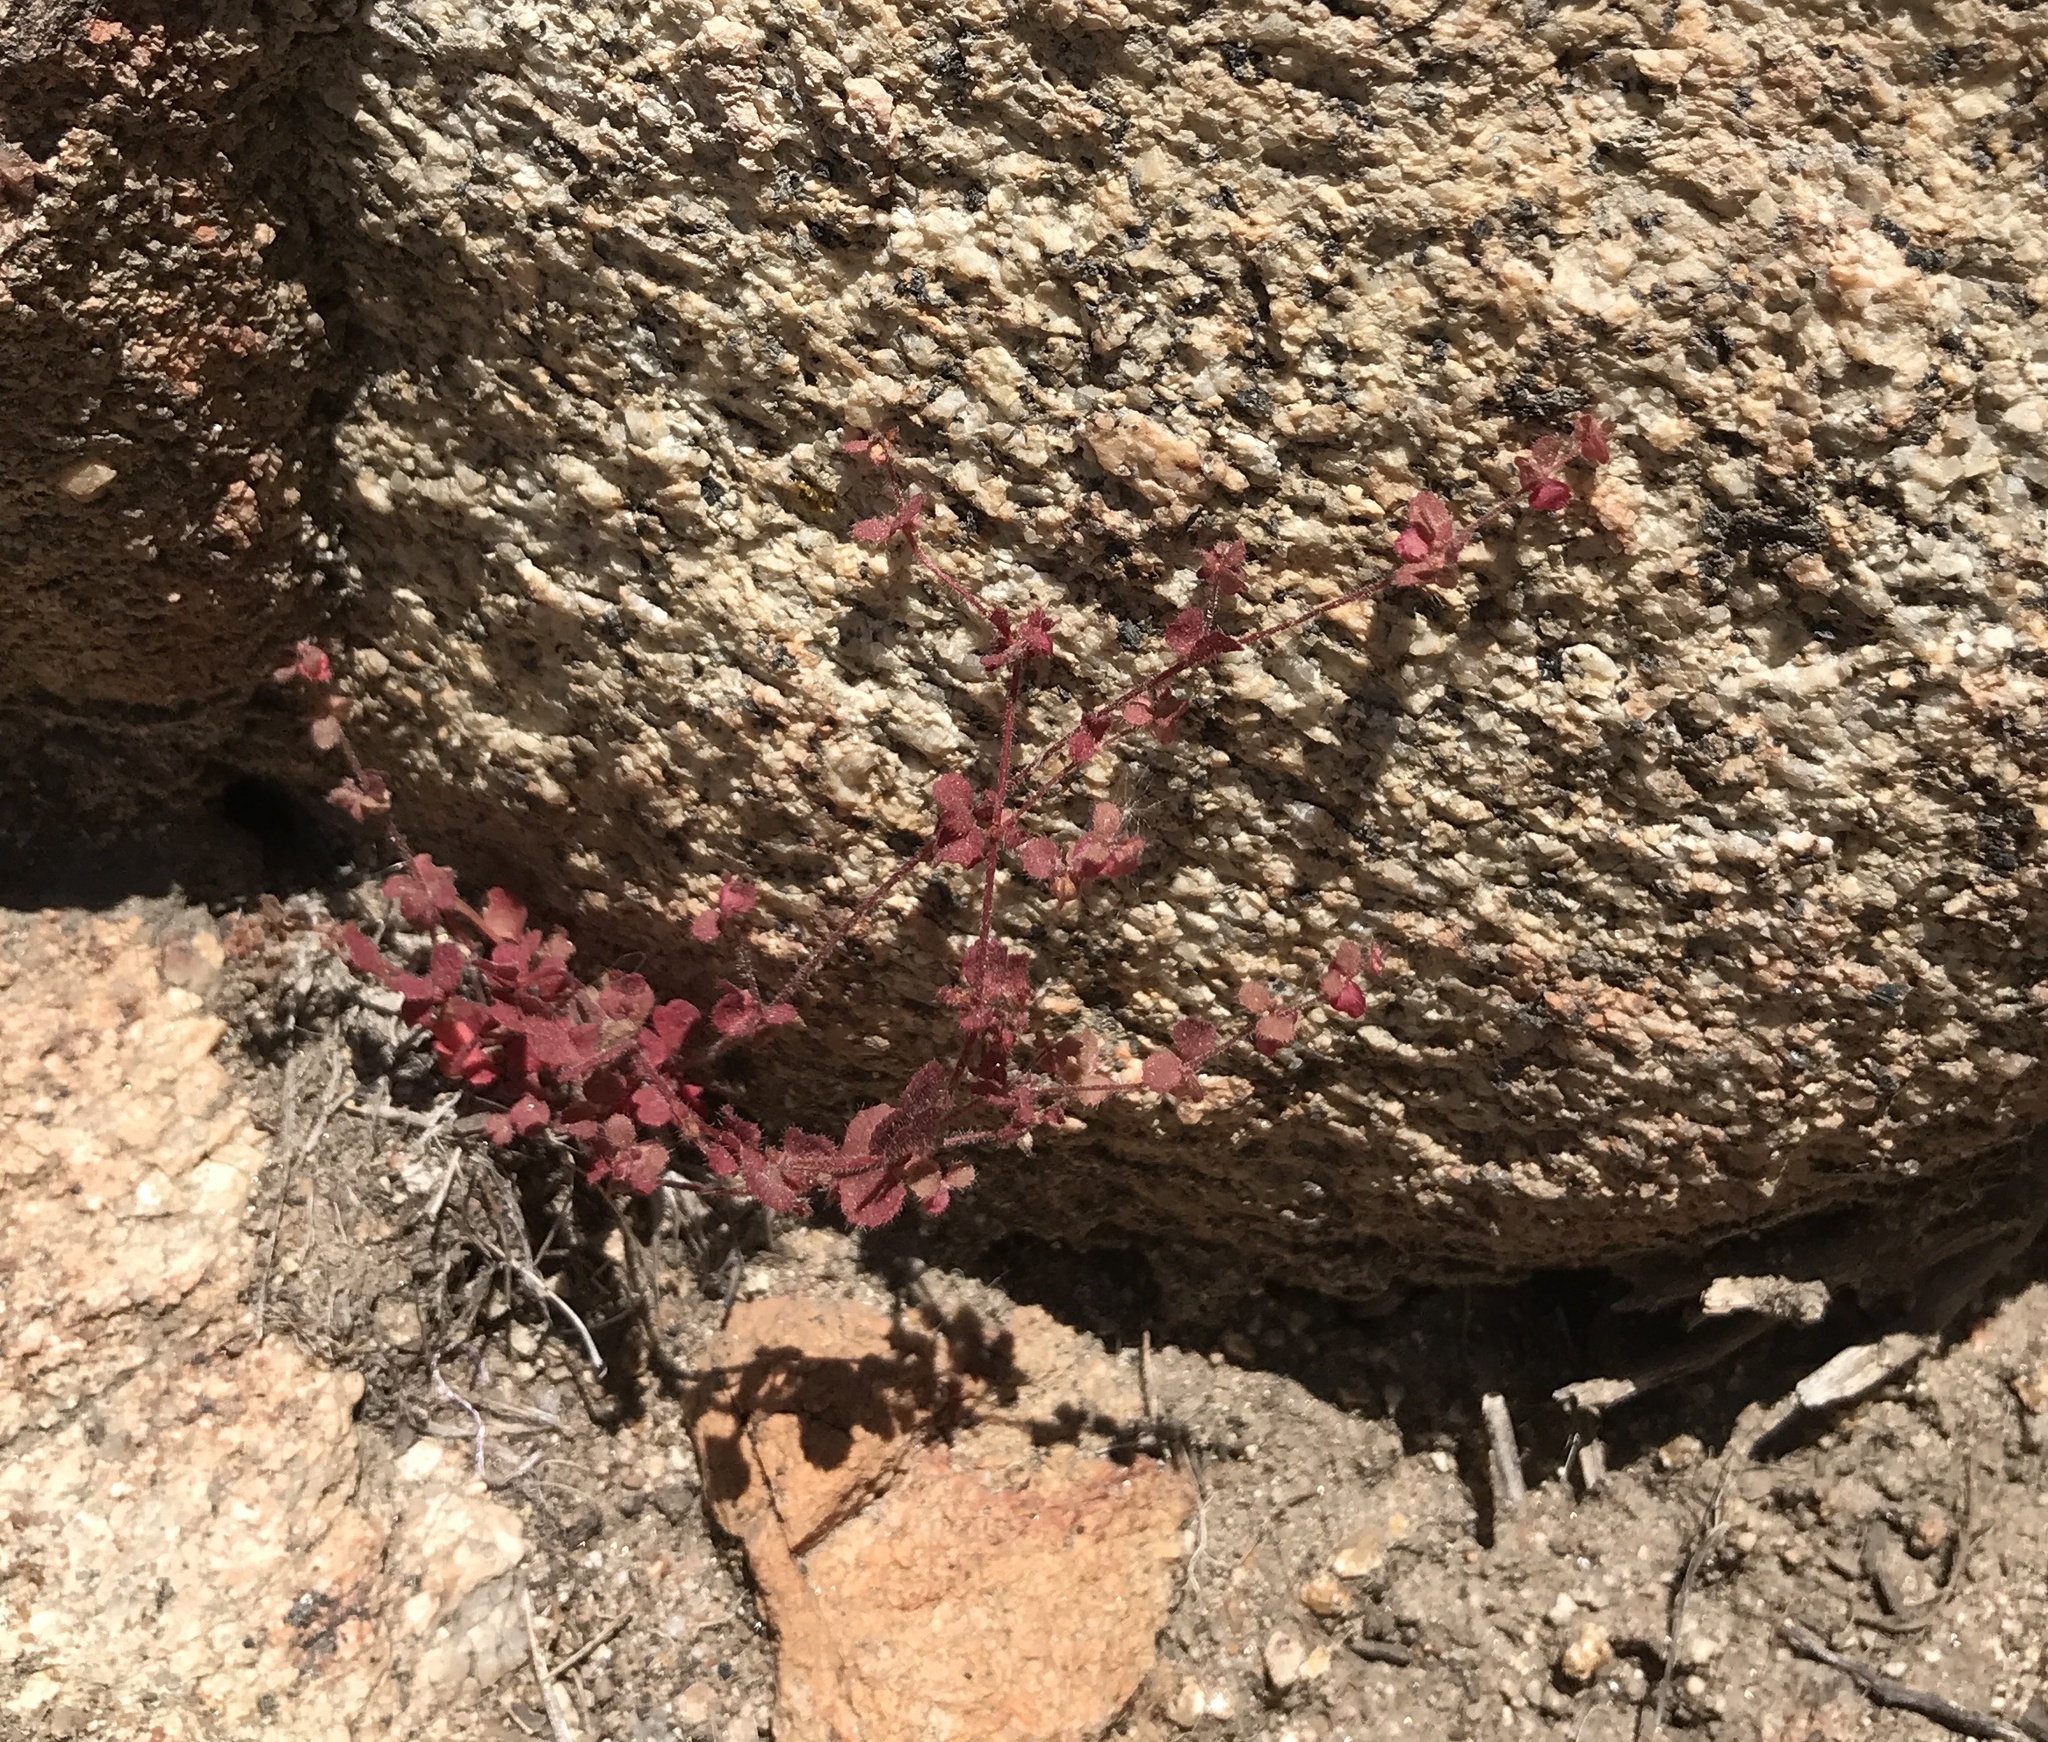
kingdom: Plantae
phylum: Tracheophyta
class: Magnoliopsida
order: Caryophyllales
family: Polygonaceae
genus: Pterostegia
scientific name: Pterostegia drymarioides
